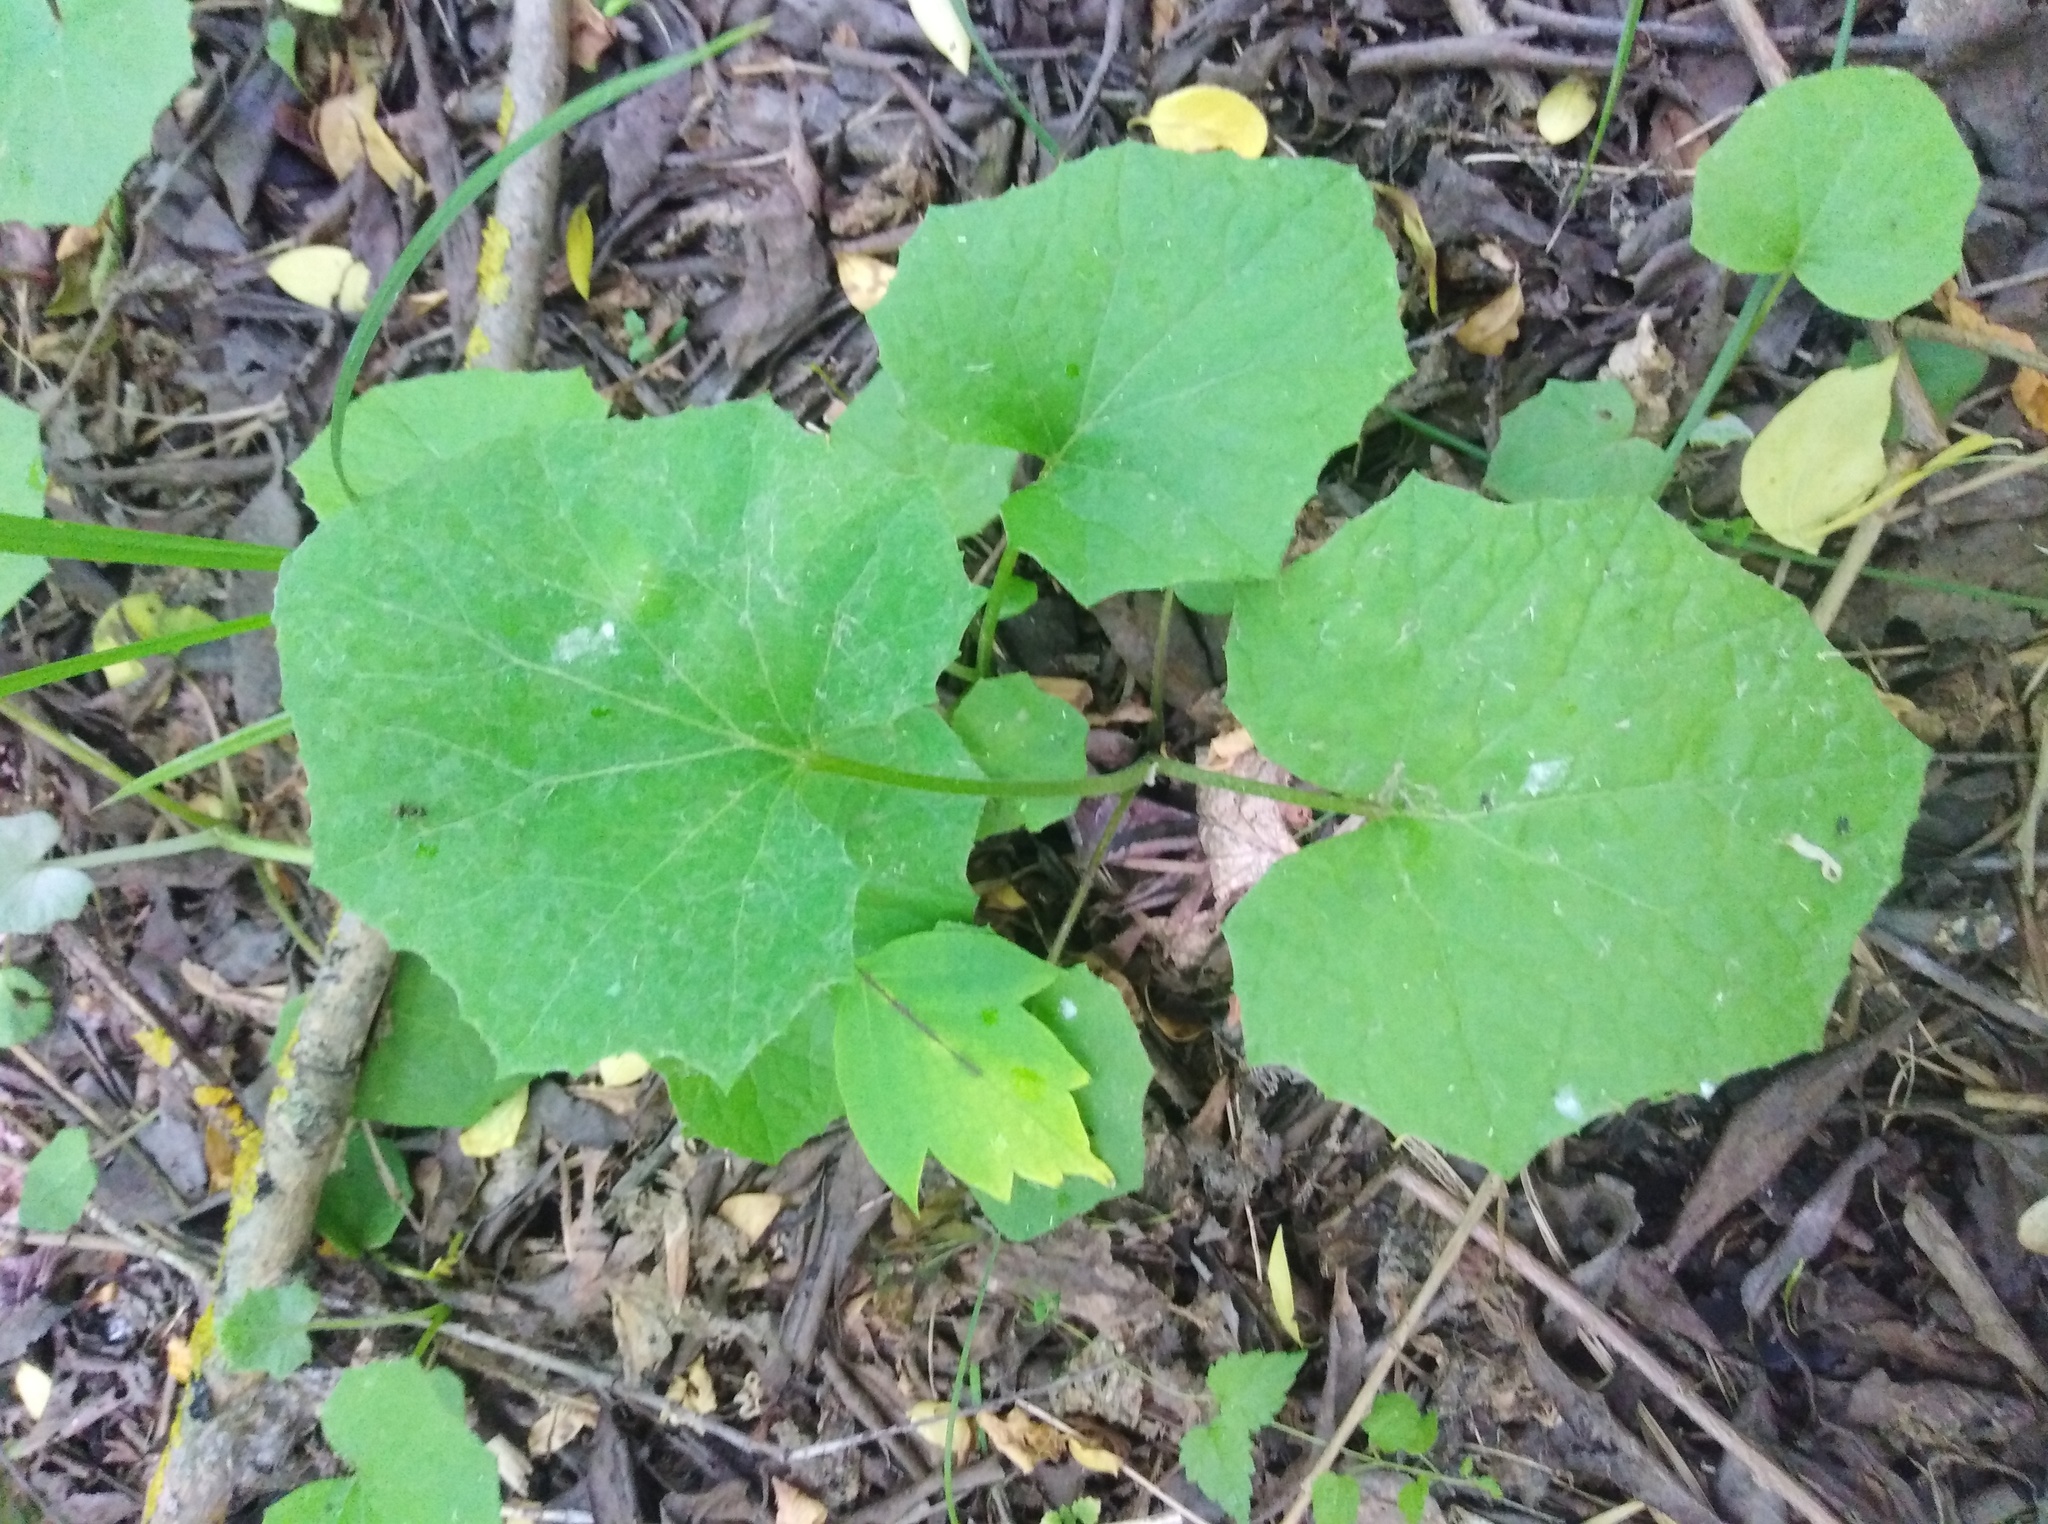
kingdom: Plantae
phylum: Tracheophyta
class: Magnoliopsida
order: Asterales
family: Asteraceae
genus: Tussilago
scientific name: Tussilago farfara
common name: Coltsfoot
